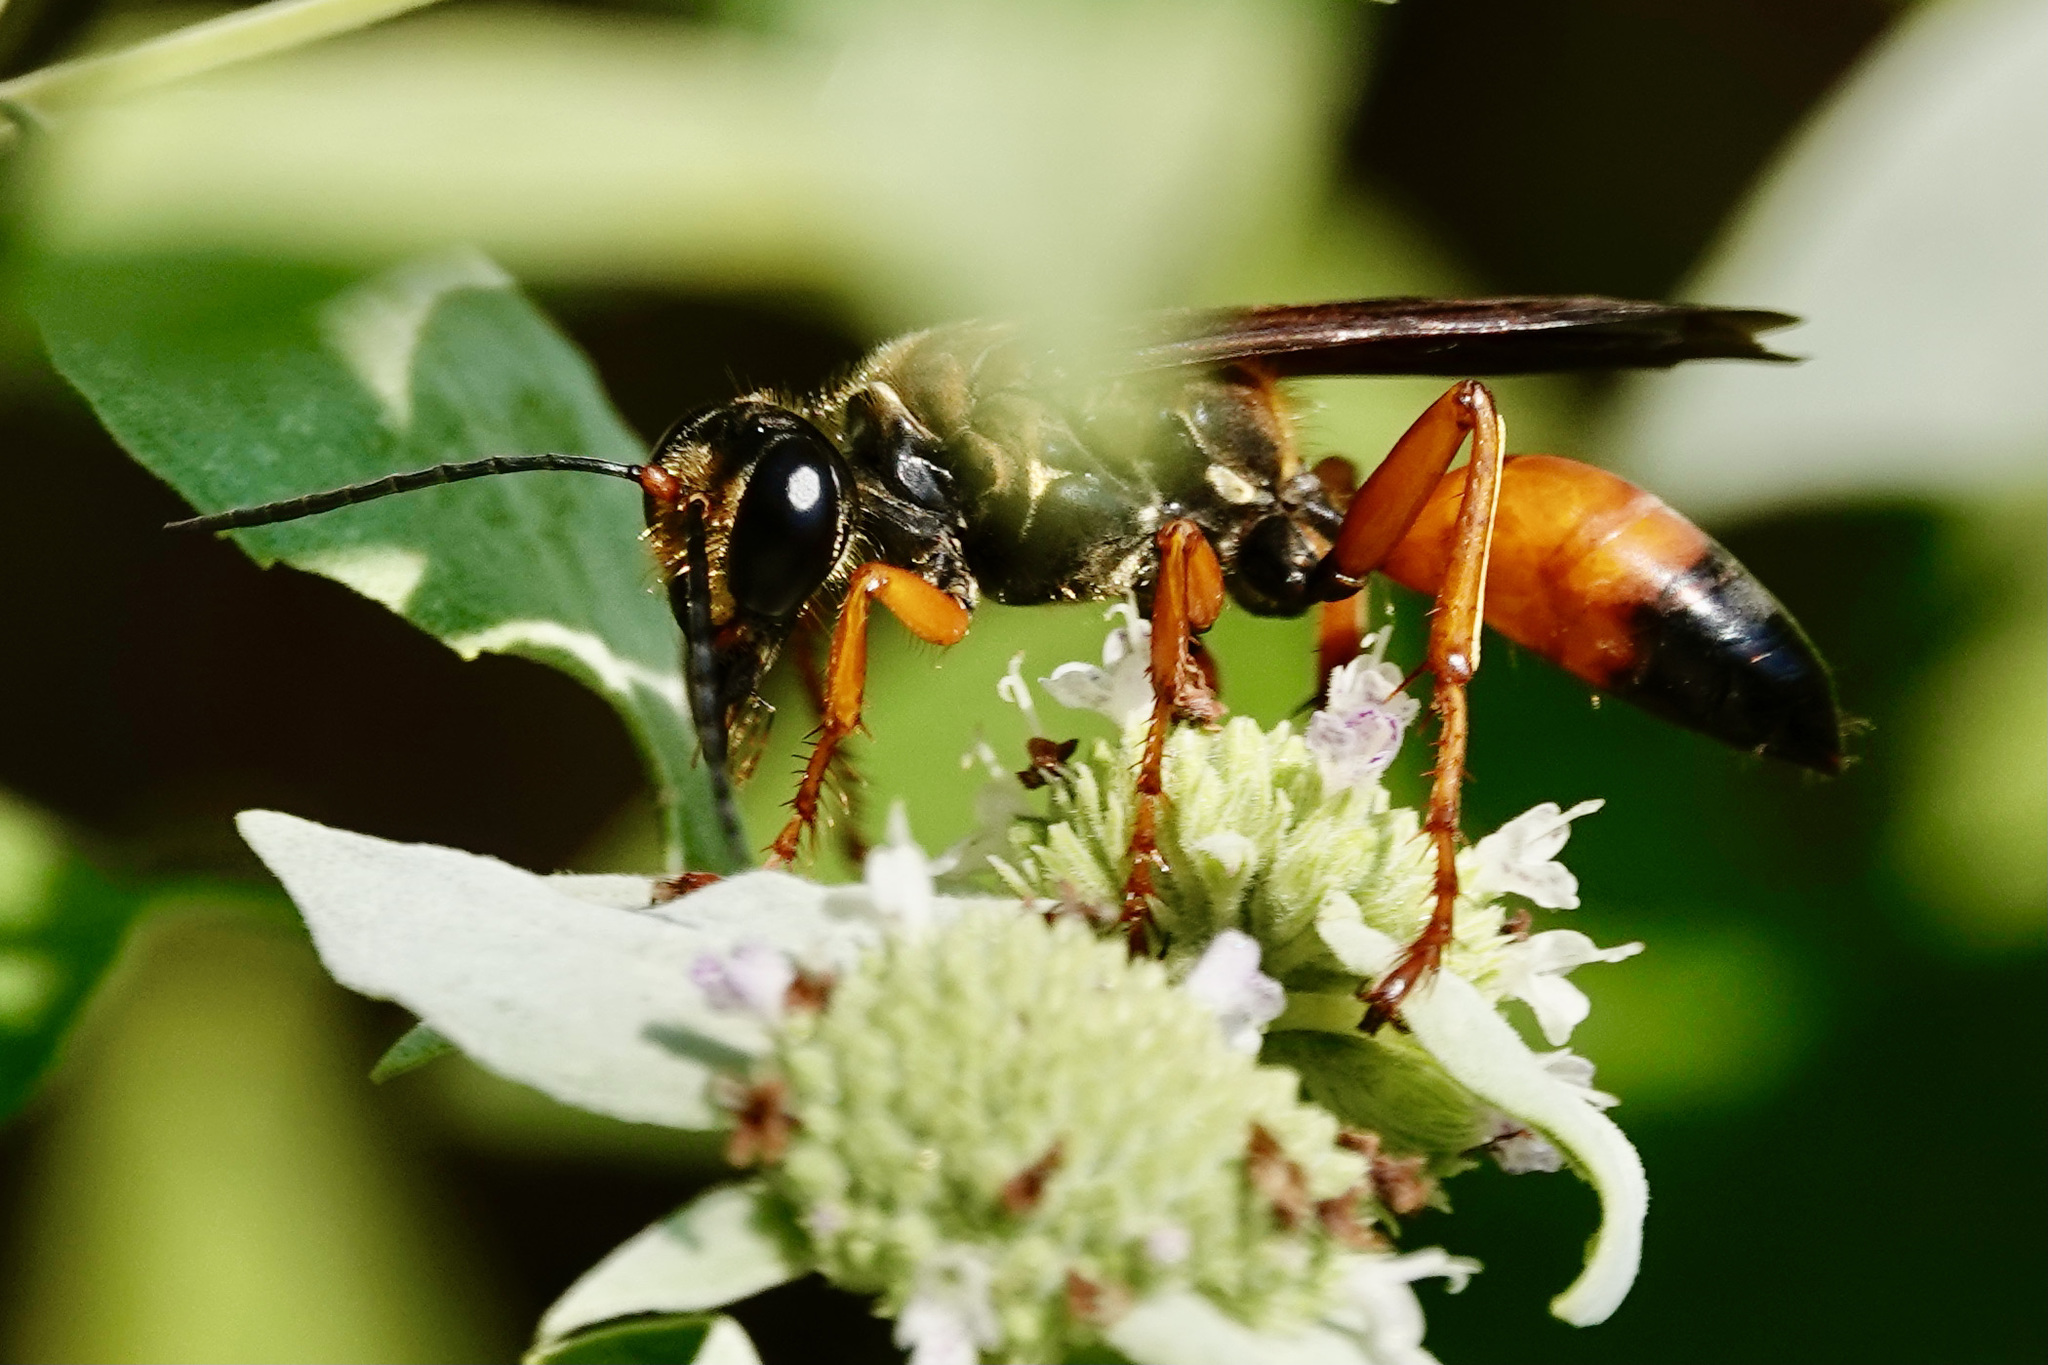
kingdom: Animalia
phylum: Arthropoda
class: Insecta
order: Hymenoptera
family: Sphecidae
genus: Sphex
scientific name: Sphex ichneumoneus
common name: Great golden digger wasp
